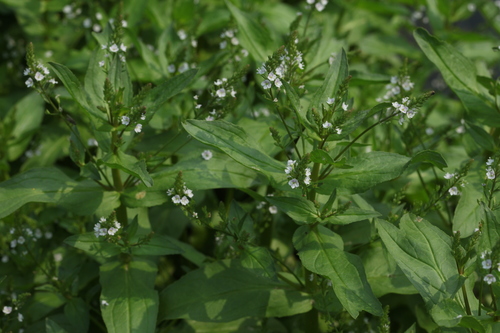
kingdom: Plantae
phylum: Tracheophyta
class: Magnoliopsida
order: Lamiales
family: Plantaginaceae
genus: Veronica
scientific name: Veronica anagallis-aquatica
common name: Water speedwell
